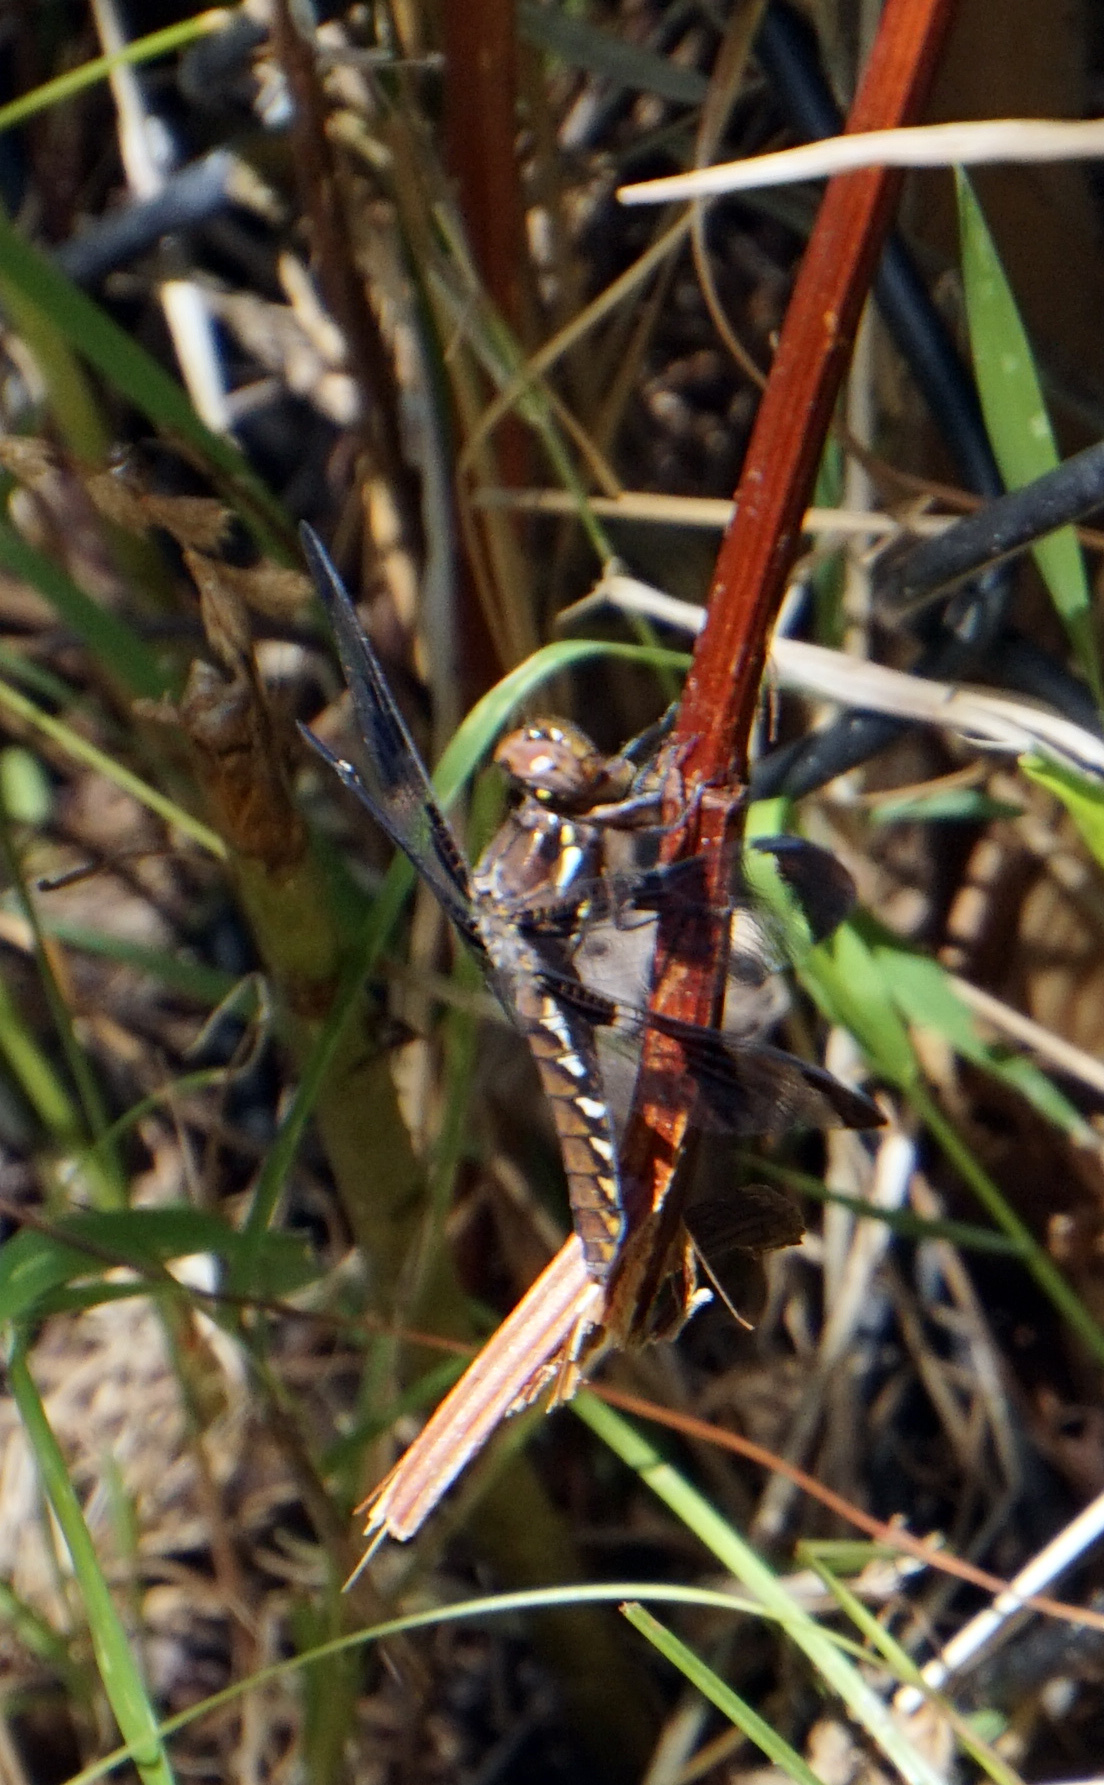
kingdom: Animalia
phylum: Arthropoda
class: Insecta
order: Odonata
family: Libellulidae
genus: Plathemis
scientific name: Plathemis lydia
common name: Common whitetail
